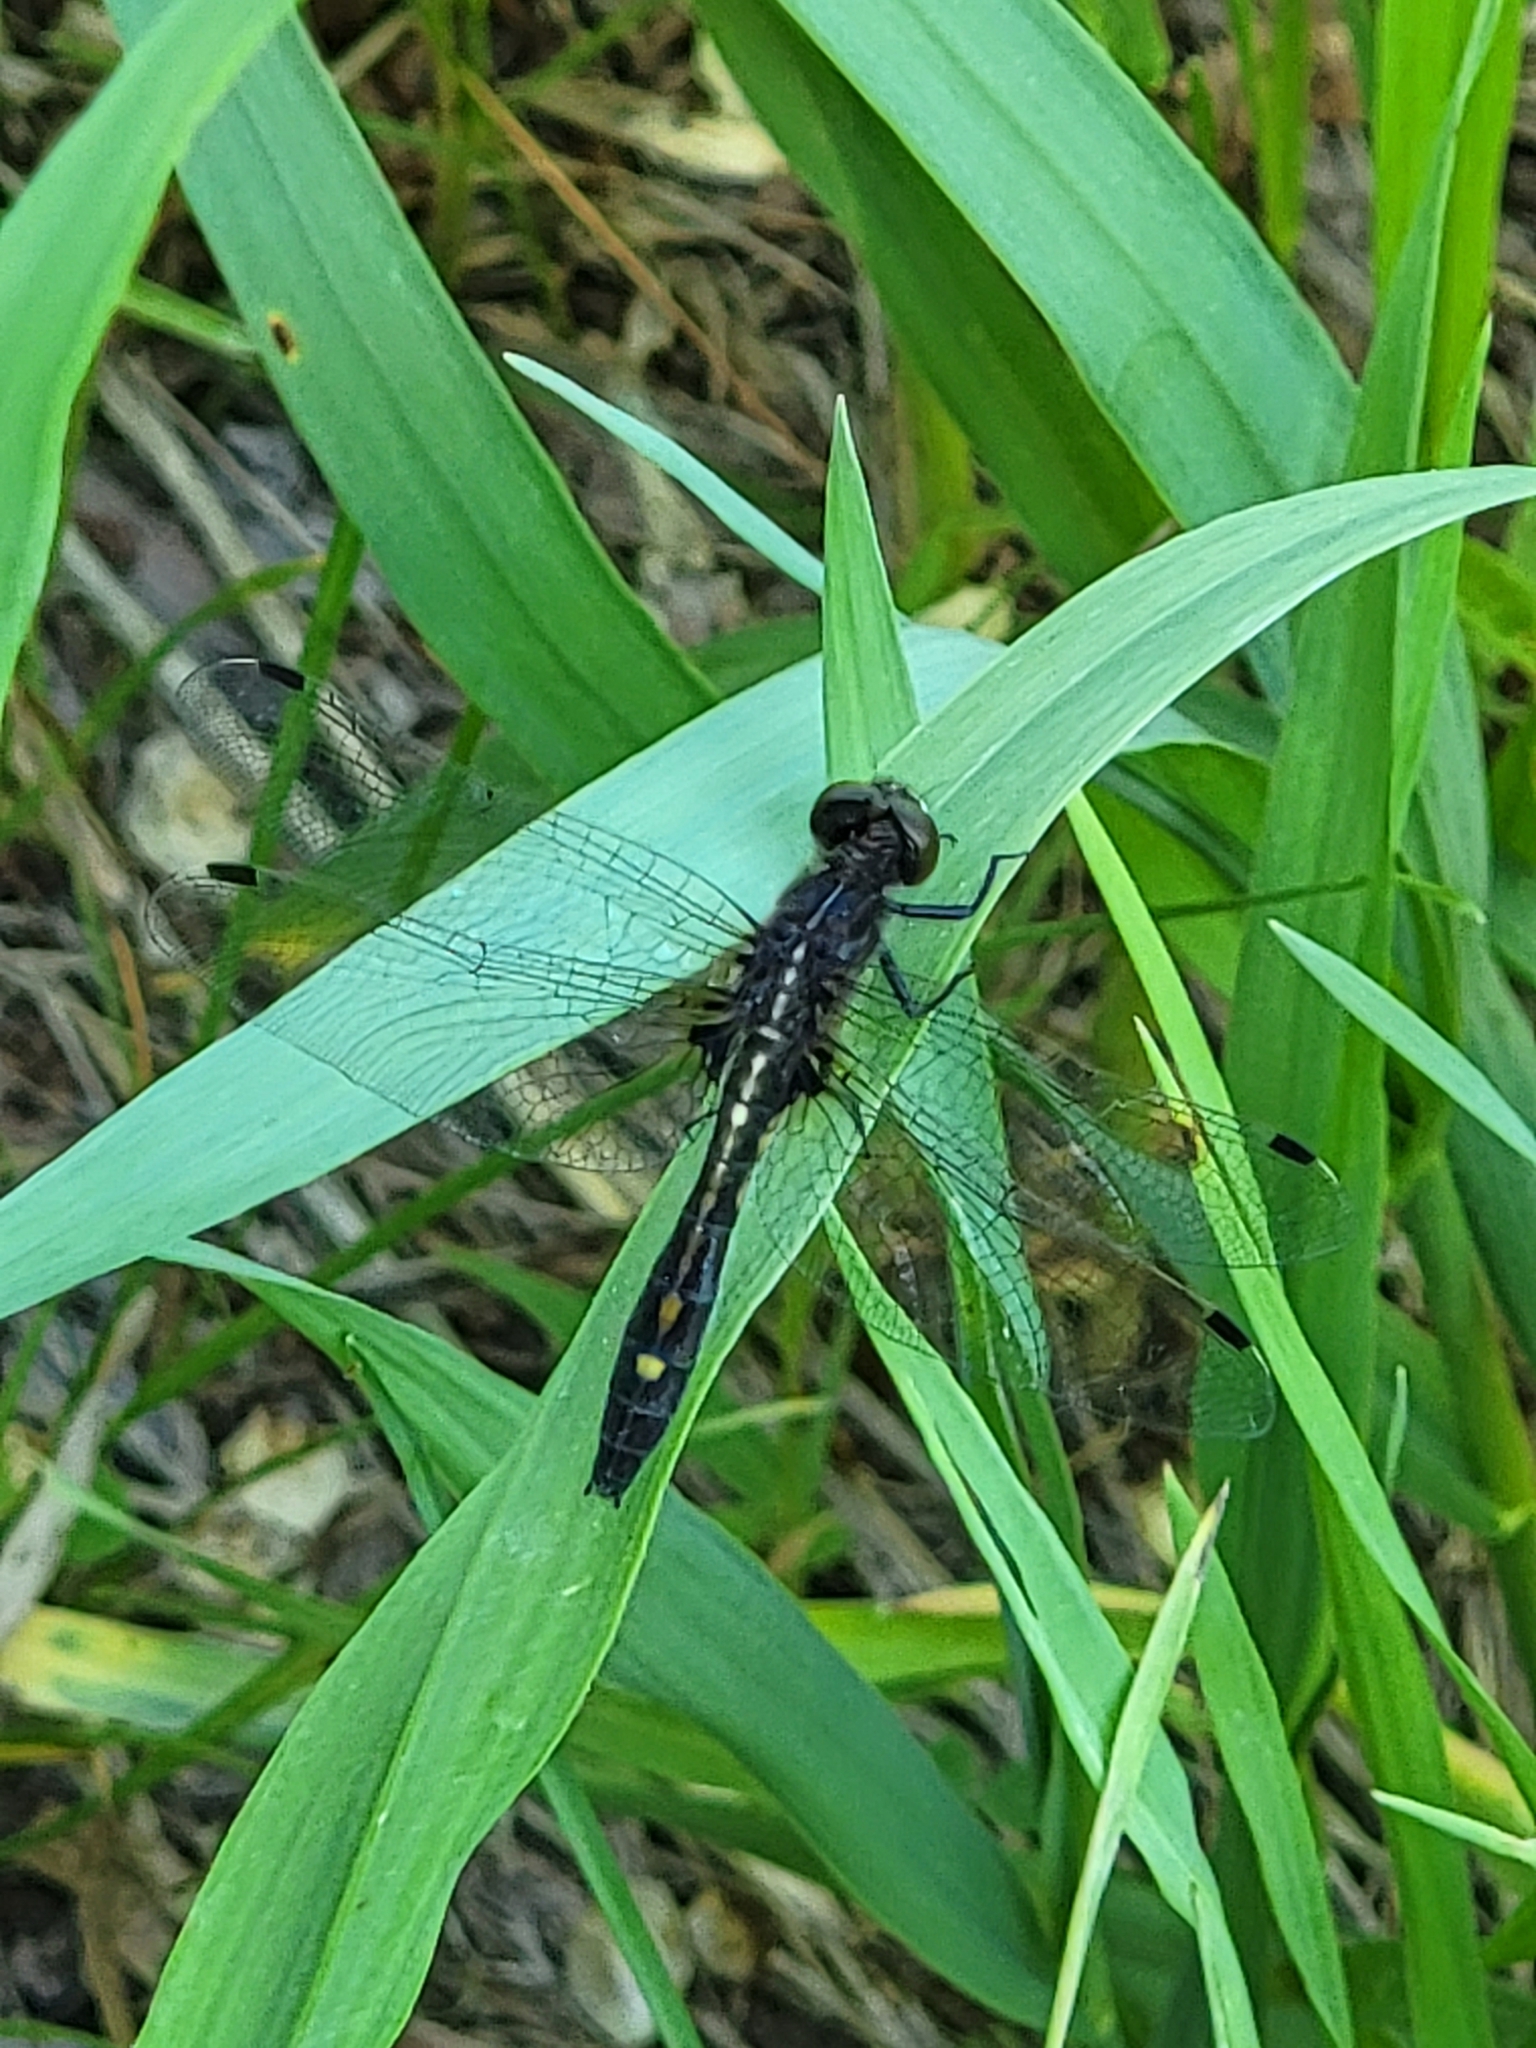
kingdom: Animalia
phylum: Arthropoda
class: Insecta
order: Odonata
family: Libellulidae
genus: Leucorrhinia
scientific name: Leucorrhinia intacta
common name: Dot-tailed whiteface
